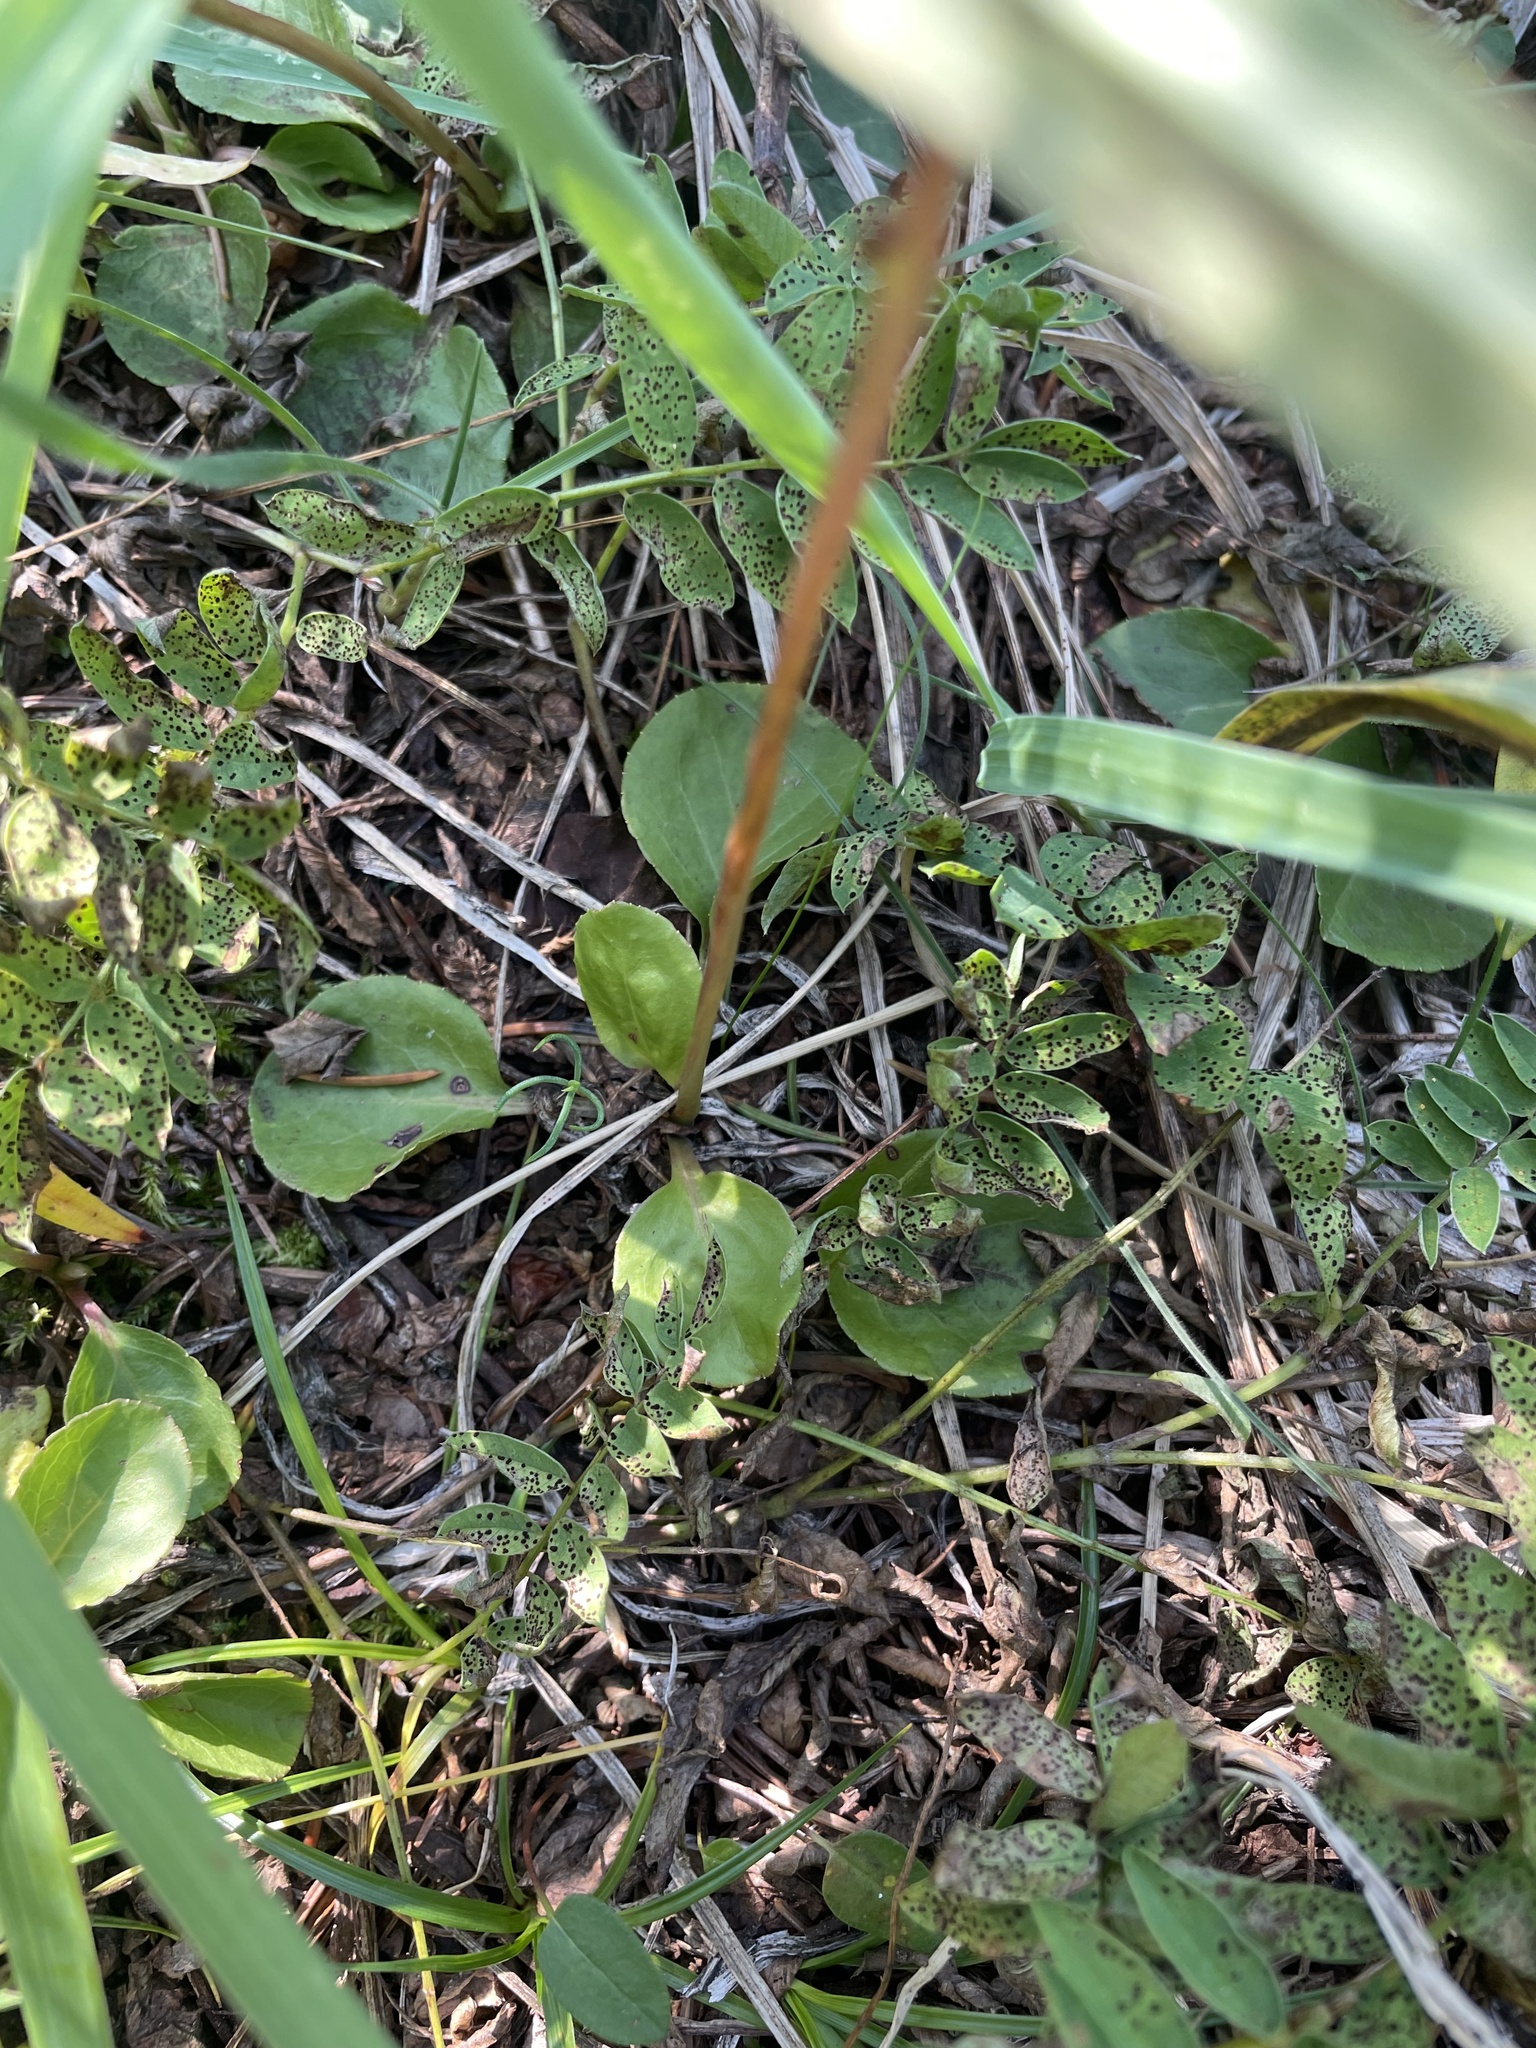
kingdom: Plantae
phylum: Tracheophyta
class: Magnoliopsida
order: Ericales
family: Ericaceae
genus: Pyrola
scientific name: Pyrola asarifolia
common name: Bog wintergreen
